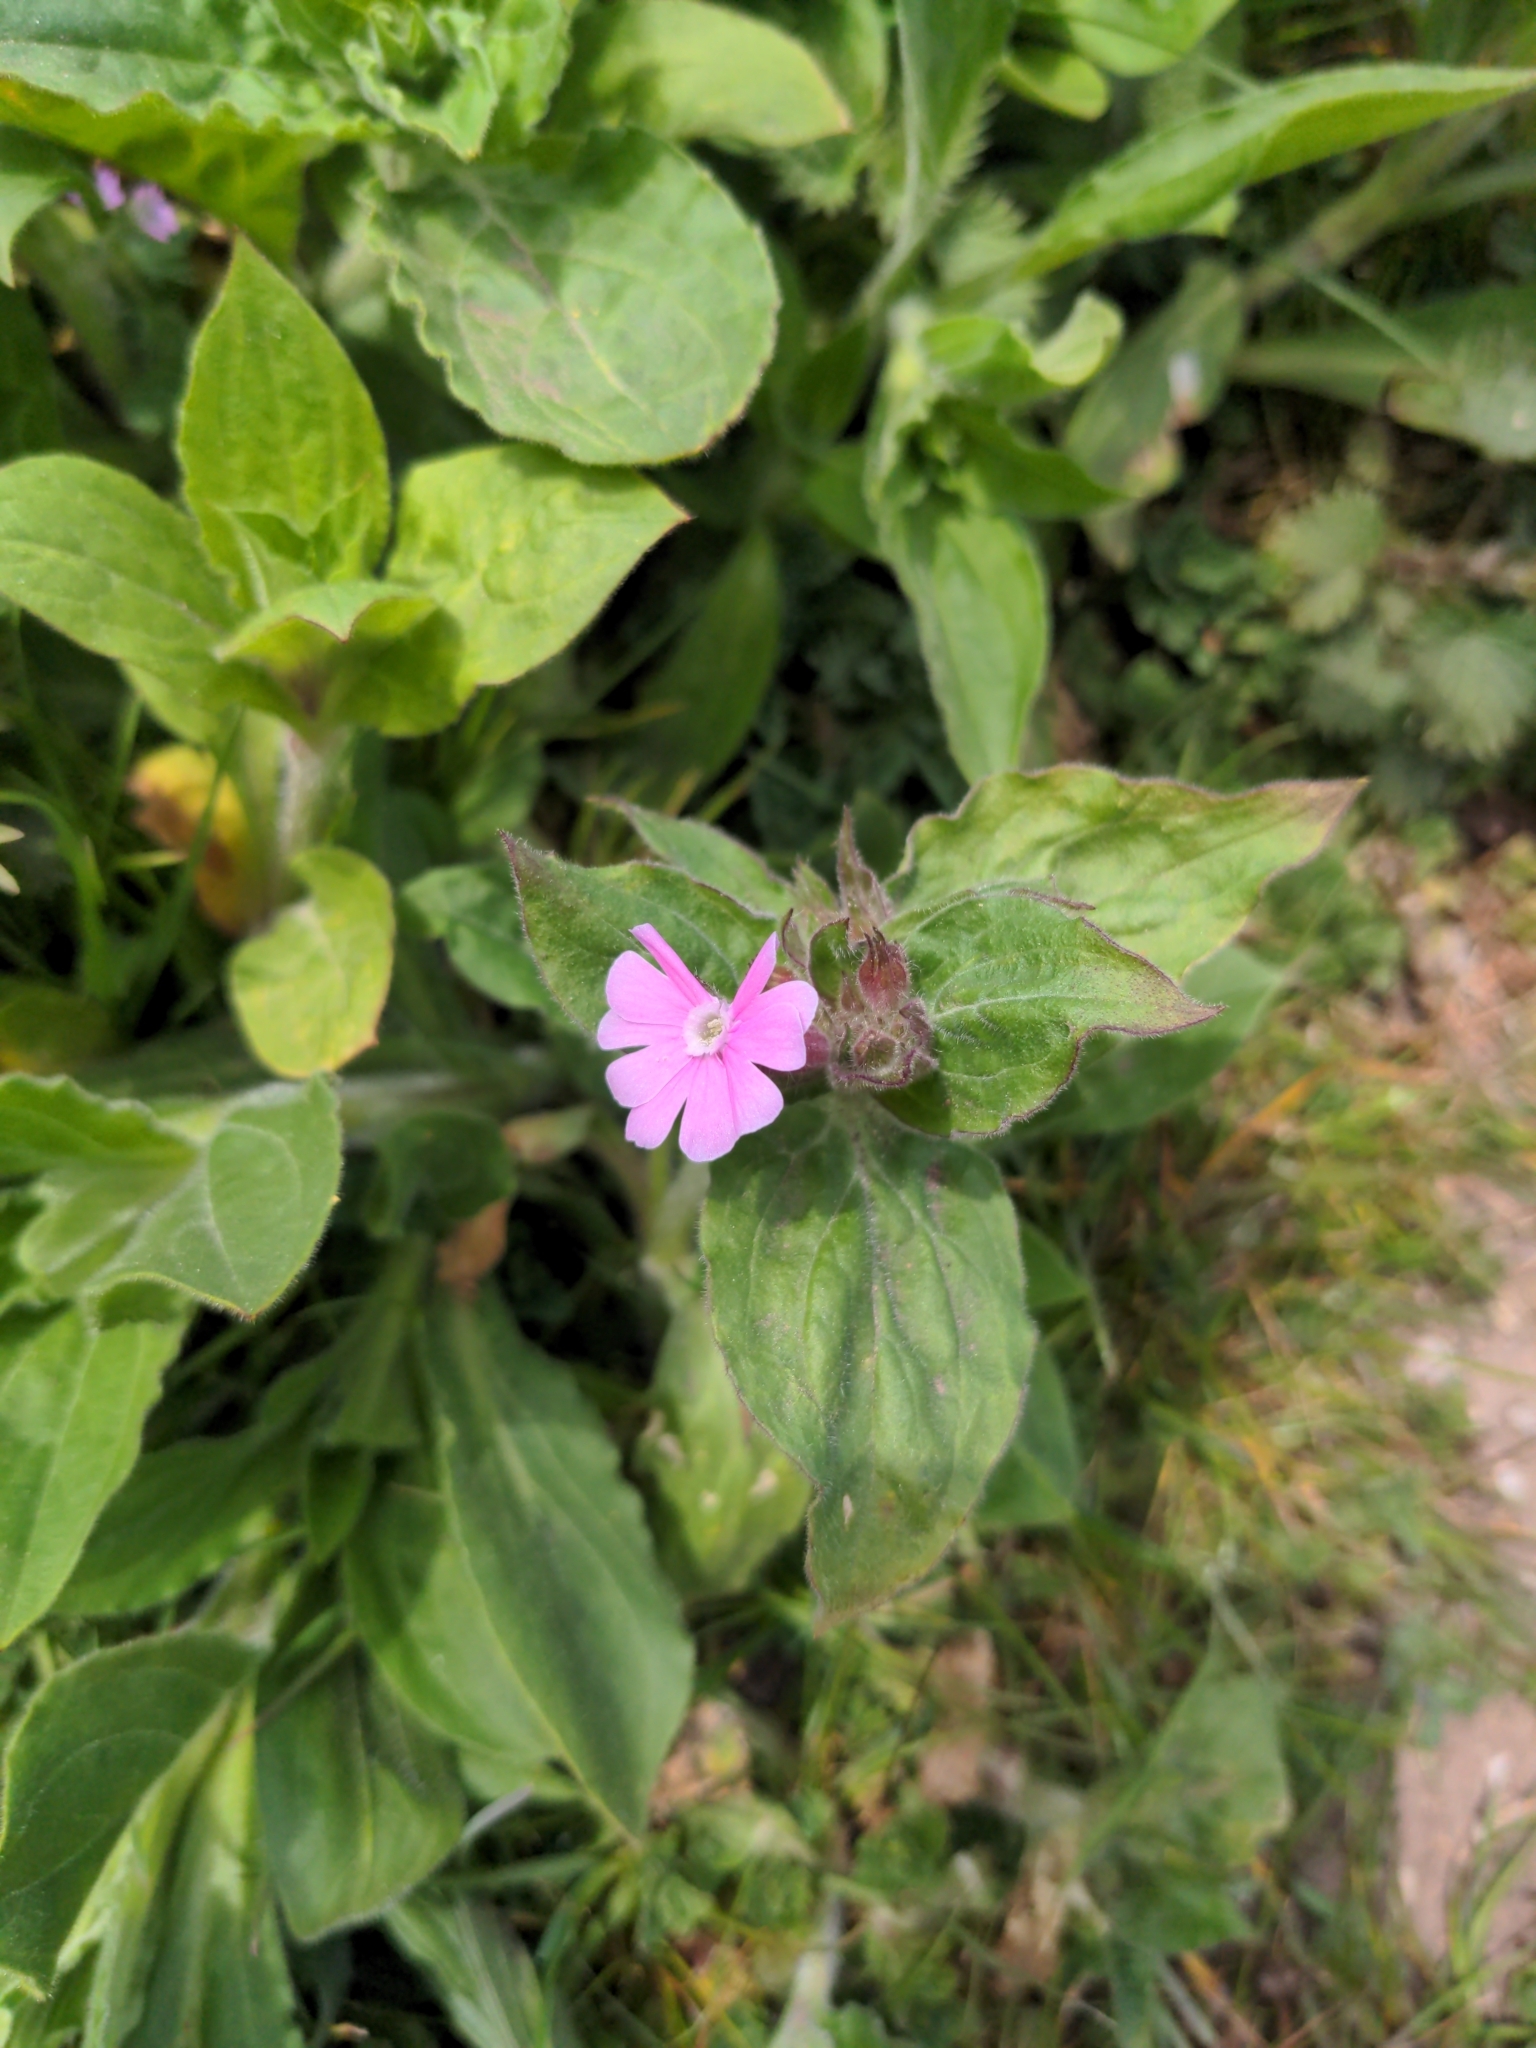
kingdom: Plantae
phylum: Tracheophyta
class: Magnoliopsida
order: Caryophyllales
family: Caryophyllaceae
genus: Silene
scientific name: Silene dioica
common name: Red campion
